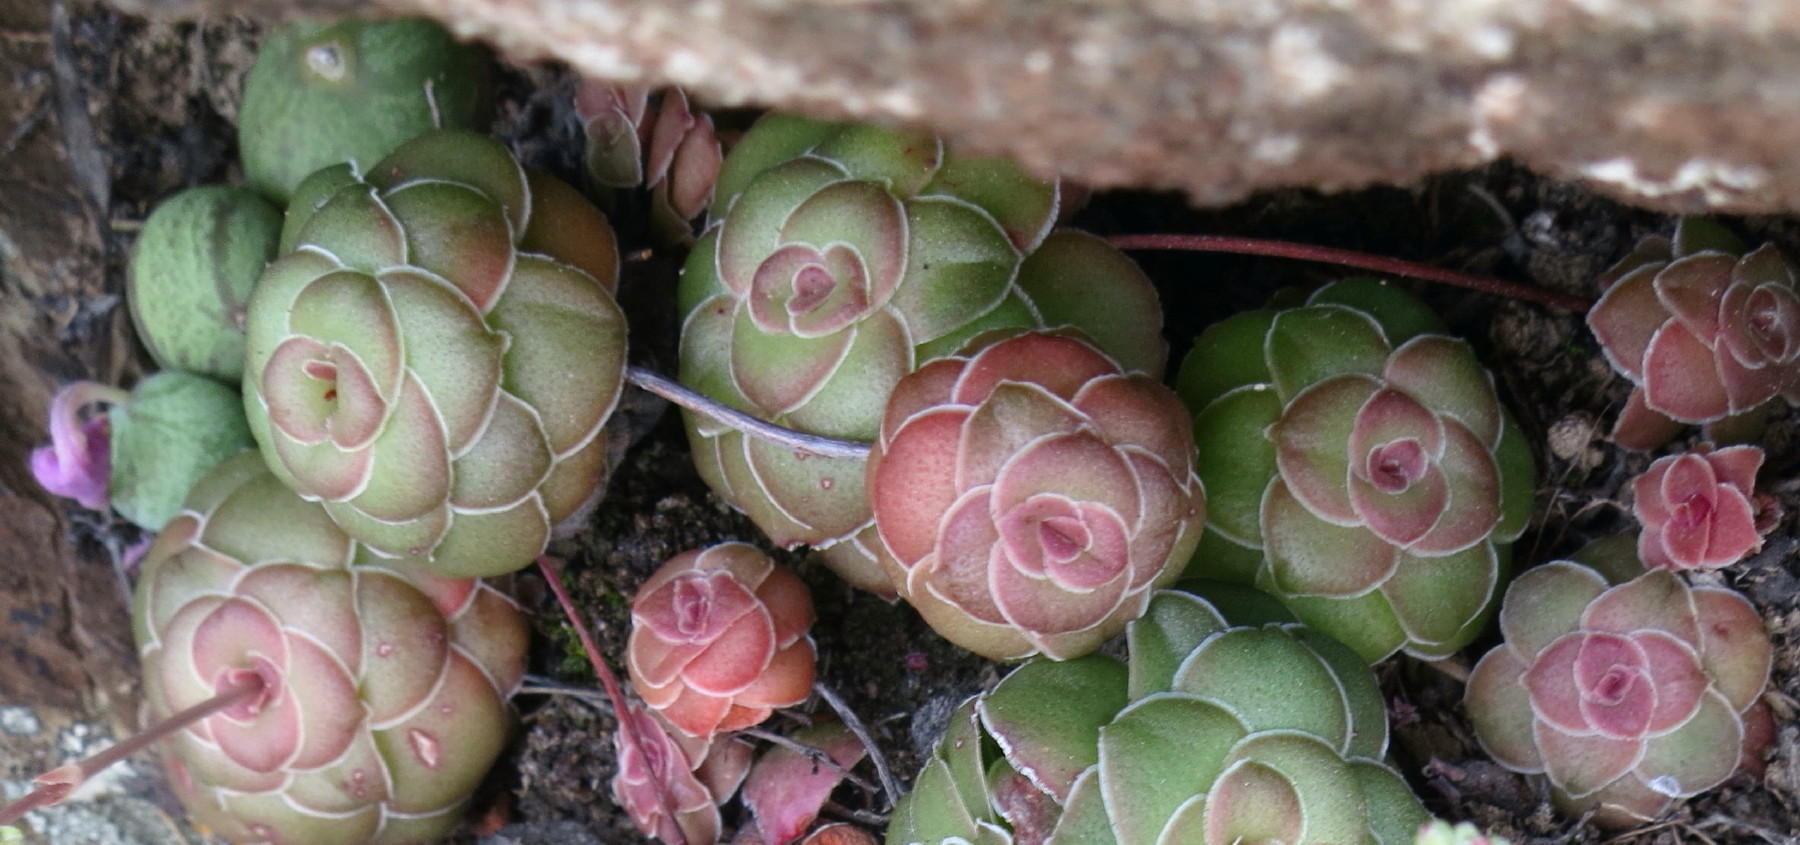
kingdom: Plantae
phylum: Tracheophyta
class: Magnoliopsida
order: Saxifragales
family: Crassulaceae
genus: Crassula
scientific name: Crassula orbicularis
